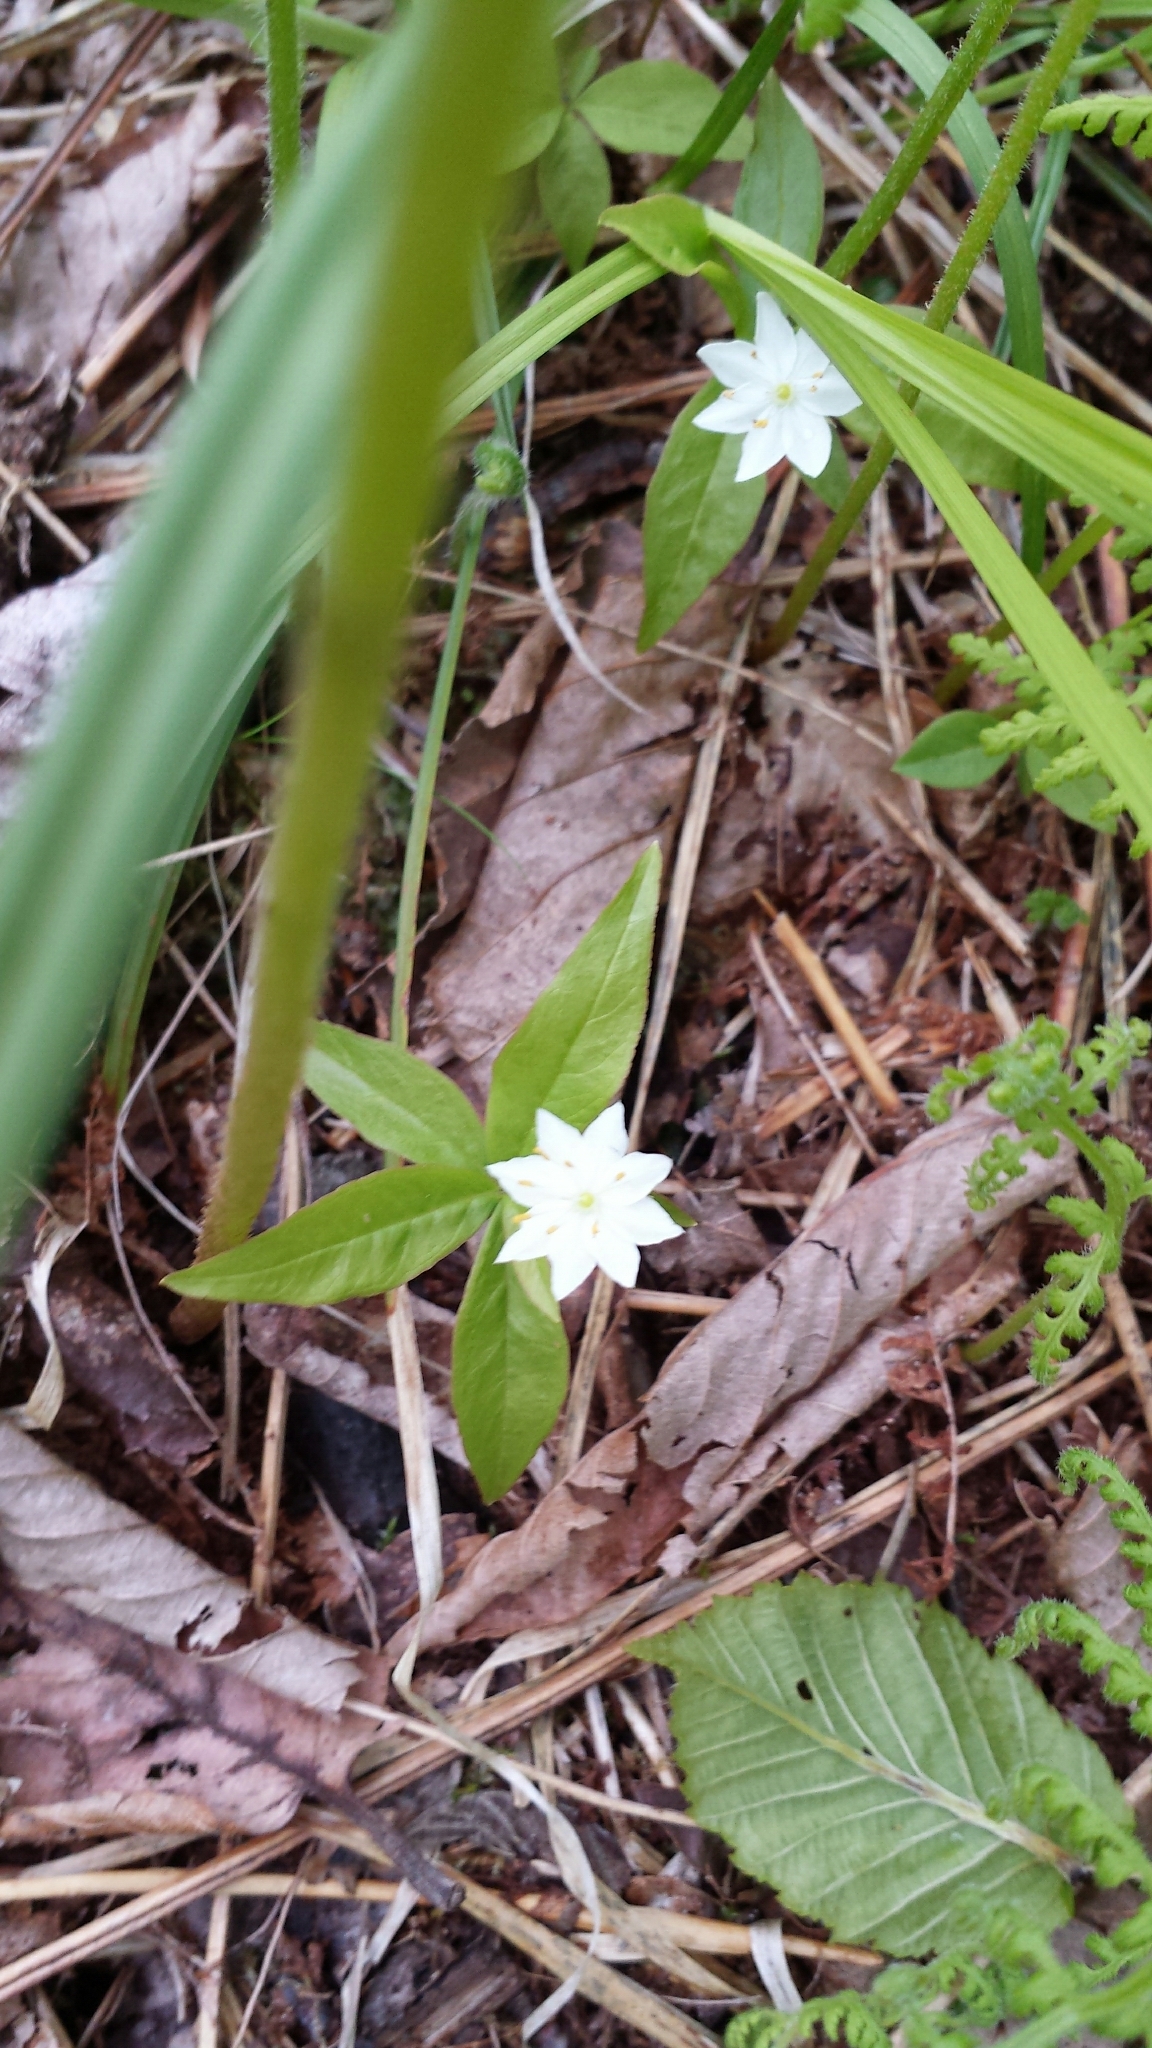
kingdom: Plantae
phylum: Tracheophyta
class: Magnoliopsida
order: Ericales
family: Primulaceae
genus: Lysimachia
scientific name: Lysimachia borealis
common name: American starflower
